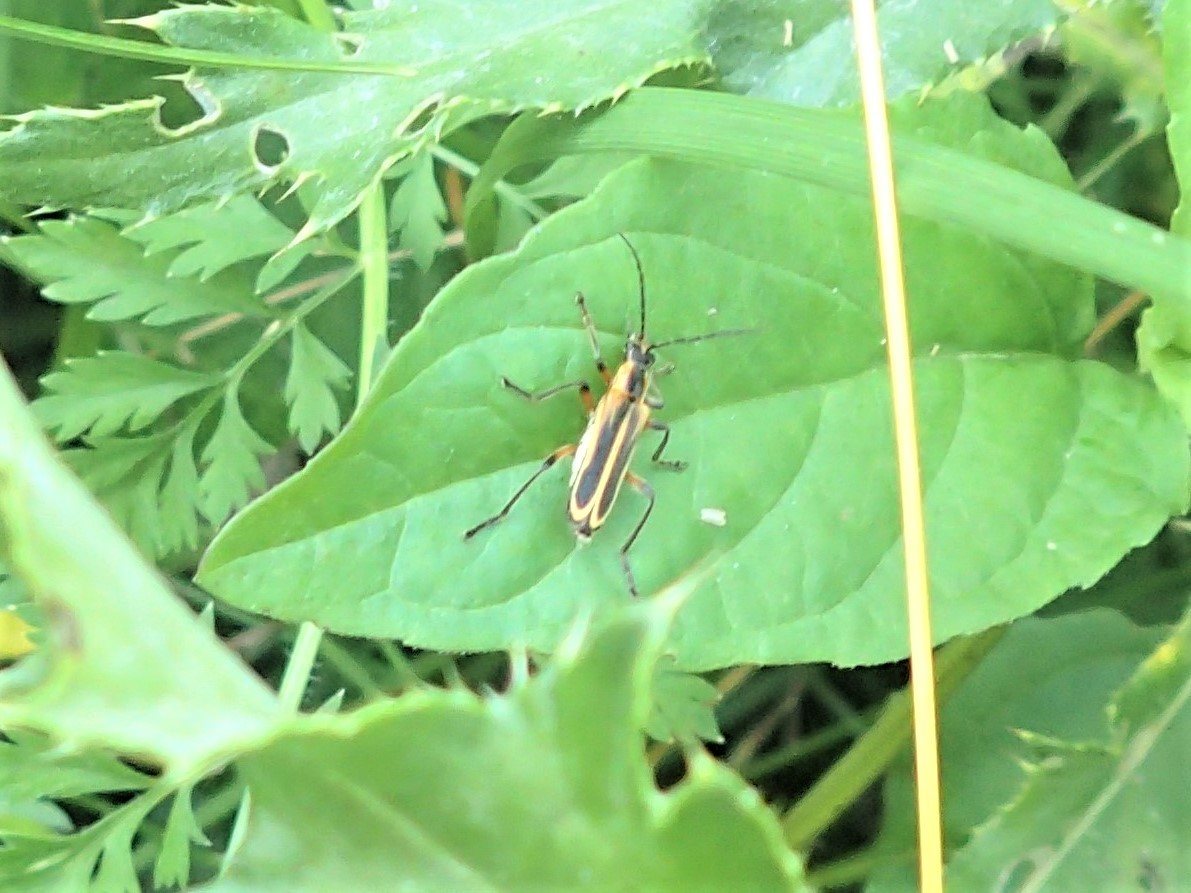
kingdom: Animalia
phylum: Arthropoda
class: Insecta
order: Coleoptera
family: Cantharidae
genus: Chauliognathus
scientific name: Chauliognathus marginatus
